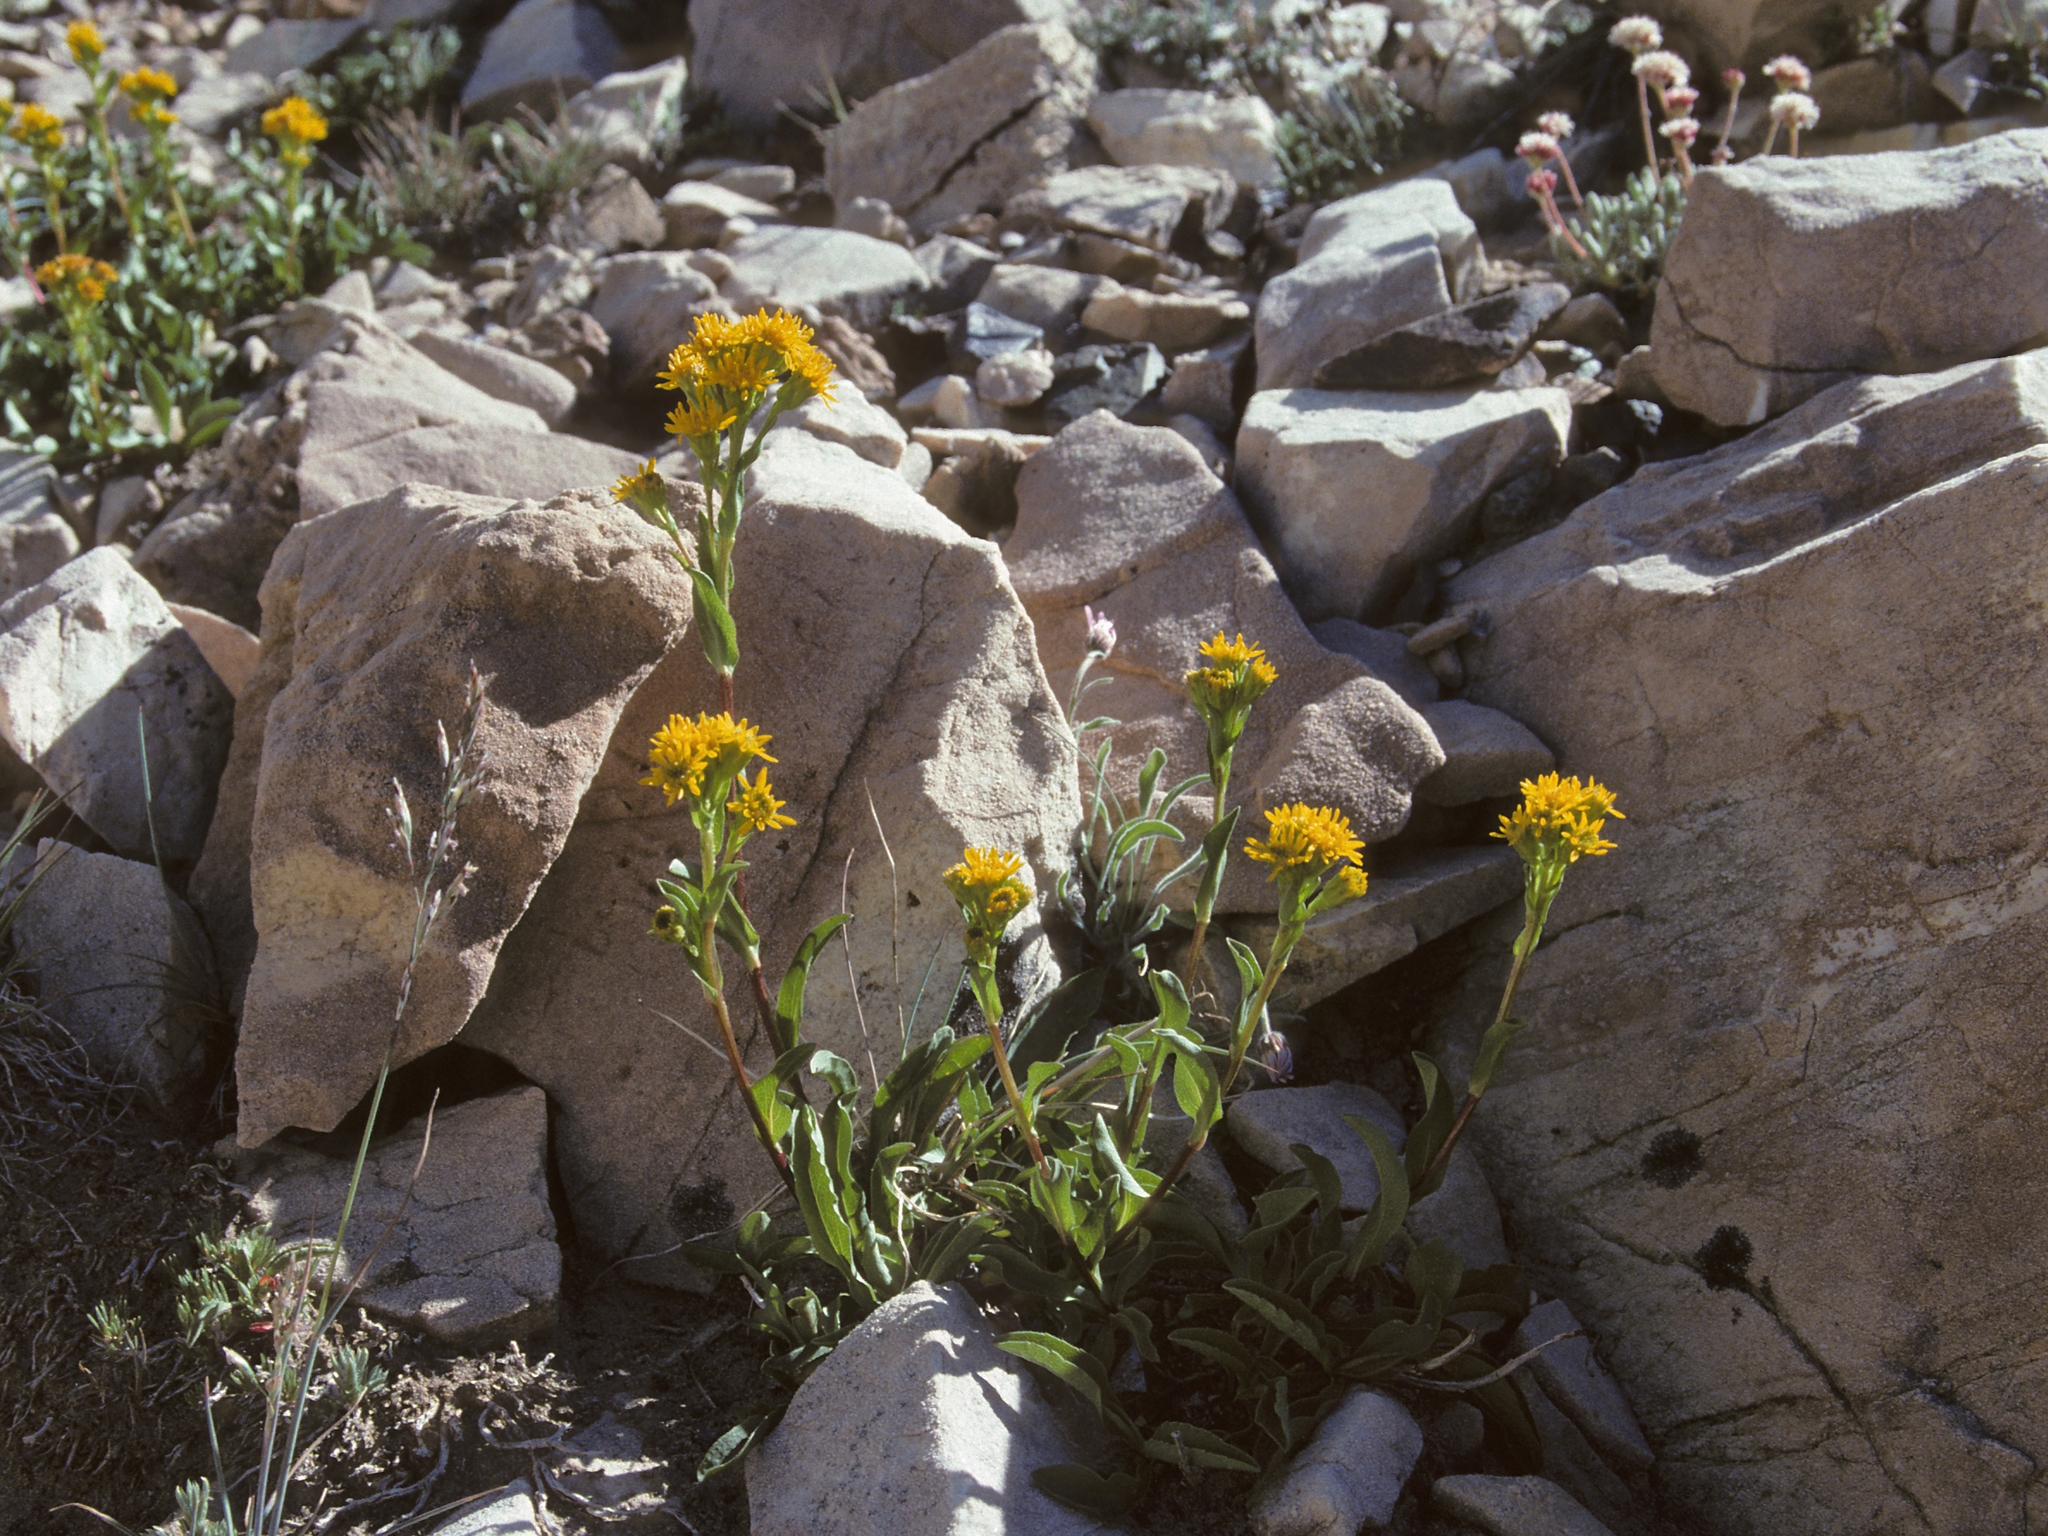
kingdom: Plantae
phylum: Tracheophyta
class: Magnoliopsida
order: Asterales
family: Asteraceae
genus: Solidago
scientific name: Solidago multiradiata
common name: Northern goldenrod
